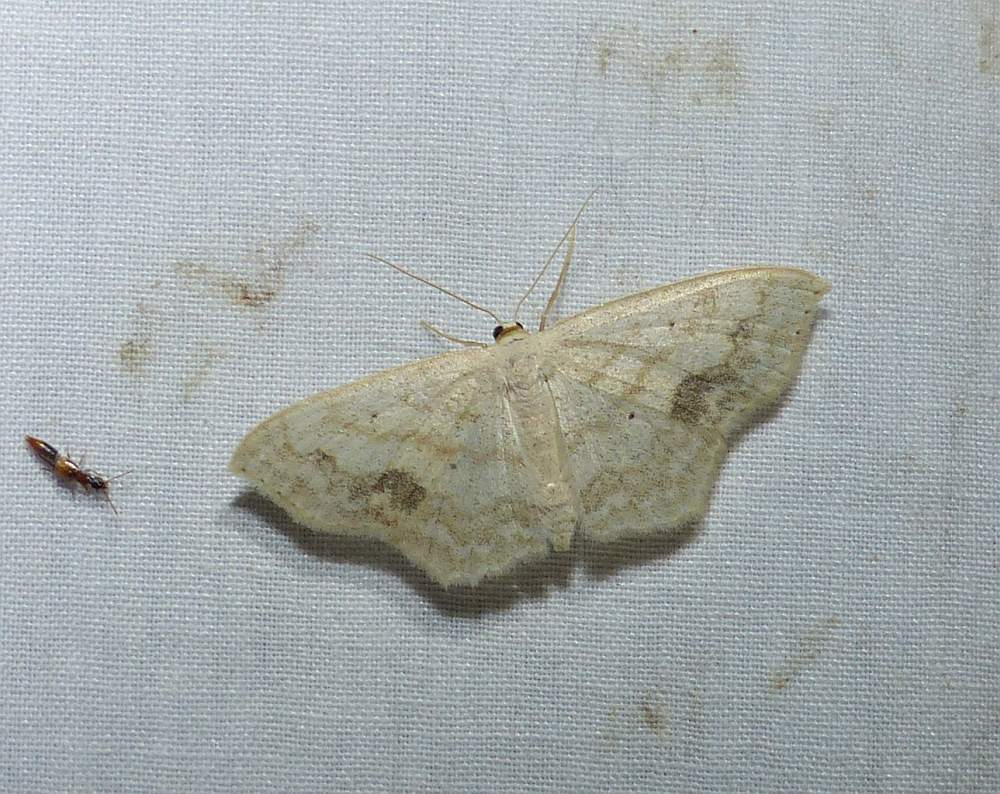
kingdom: Animalia
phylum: Arthropoda
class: Insecta
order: Lepidoptera
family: Geometridae
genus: Scopula
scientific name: Scopula limboundata
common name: Large lace border
